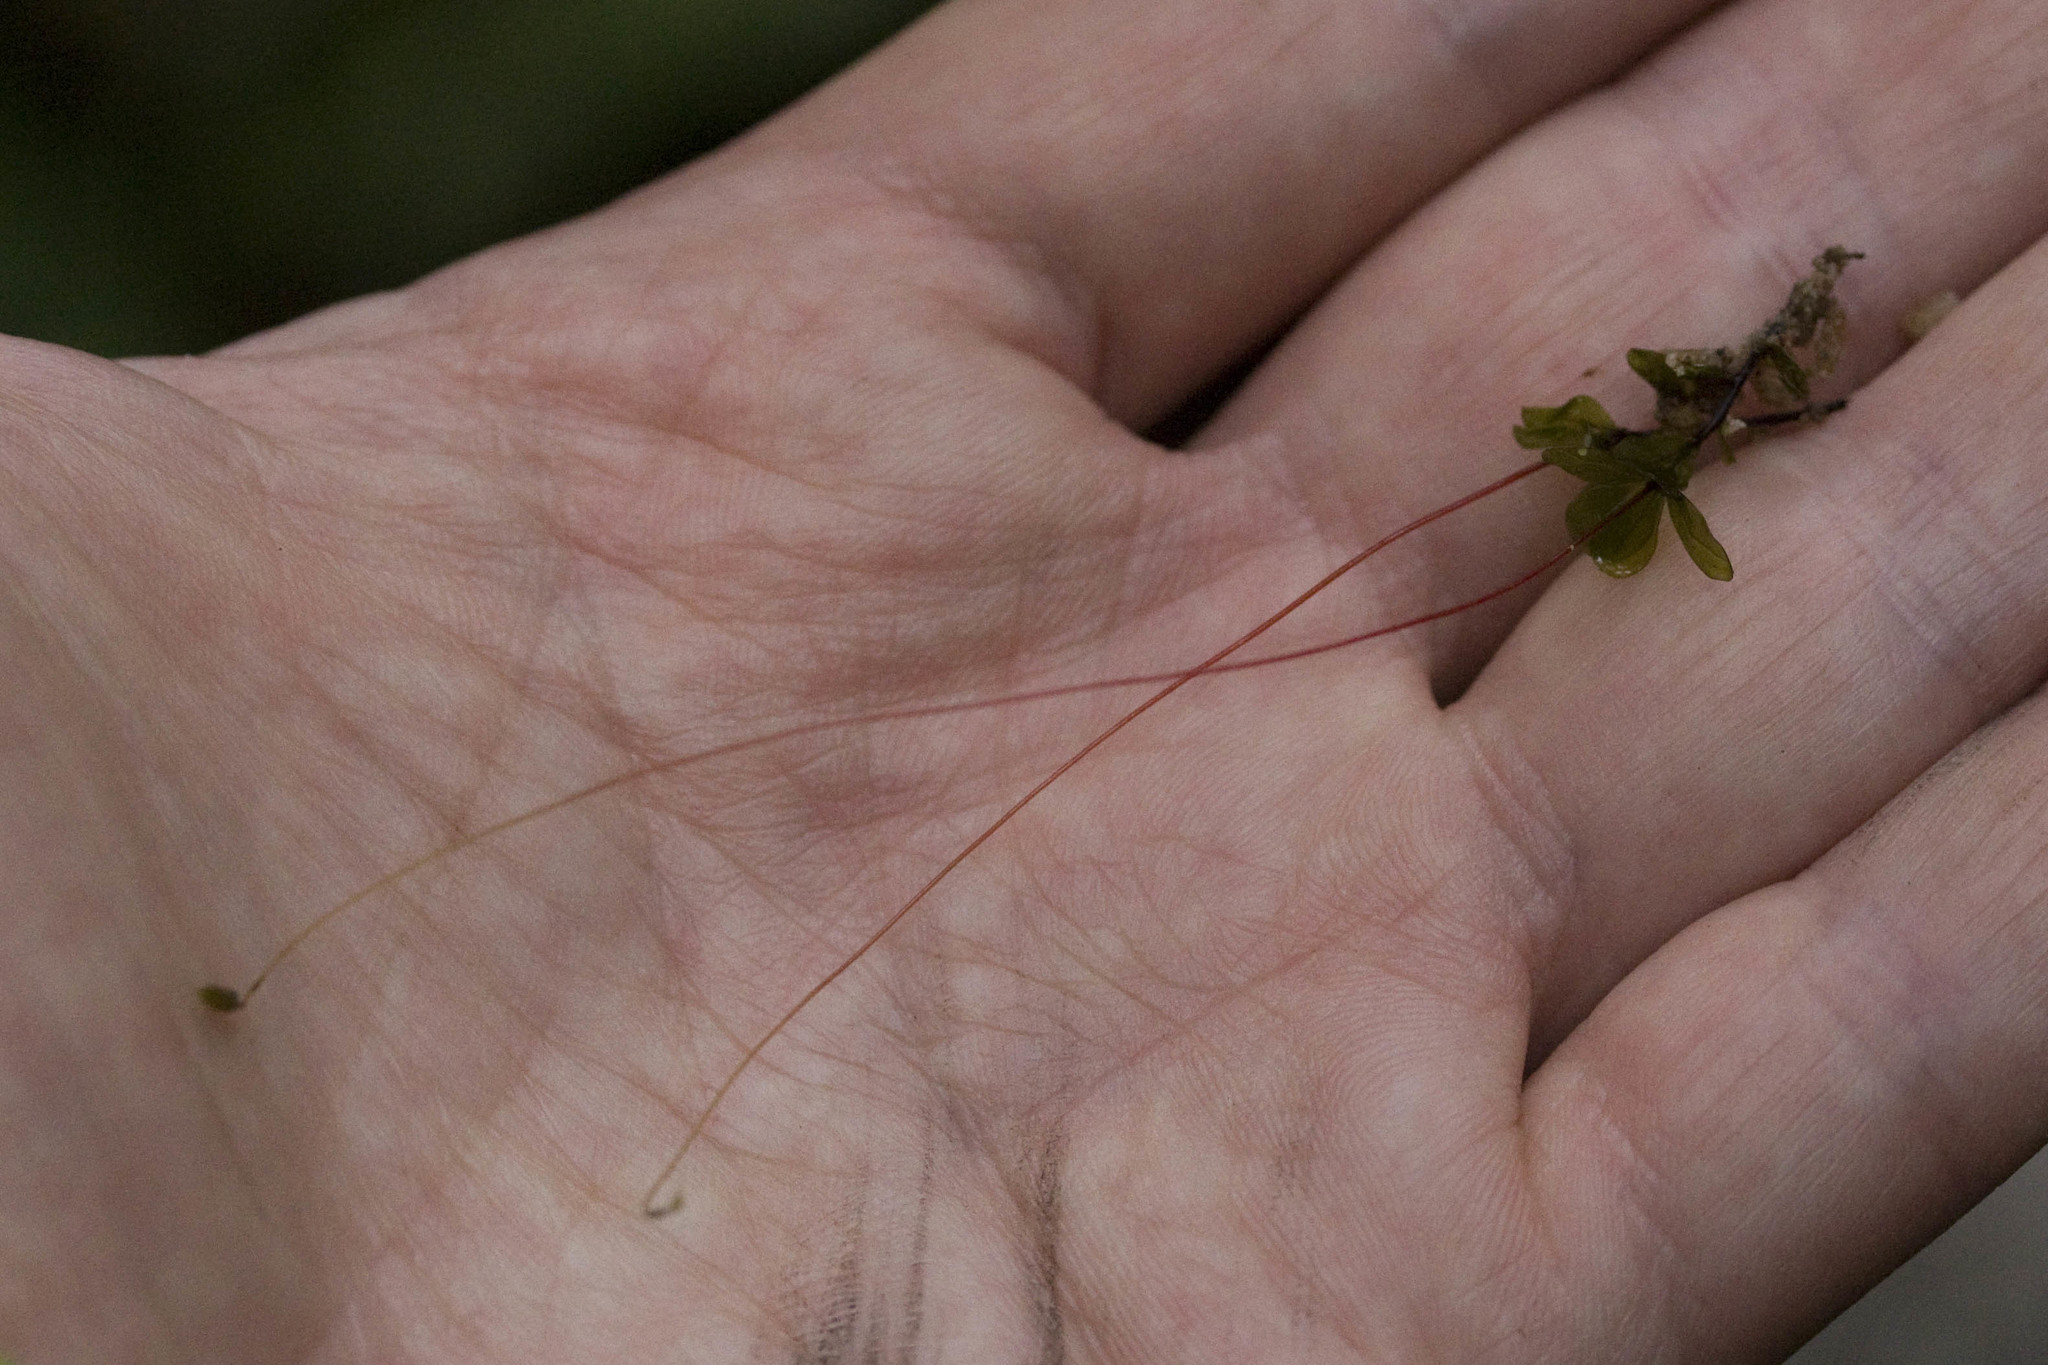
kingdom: Plantae
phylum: Bryophyta
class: Bryopsida
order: Bryales
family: Mniaceae
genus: Rhizomnium
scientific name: Rhizomnium glabrescens
